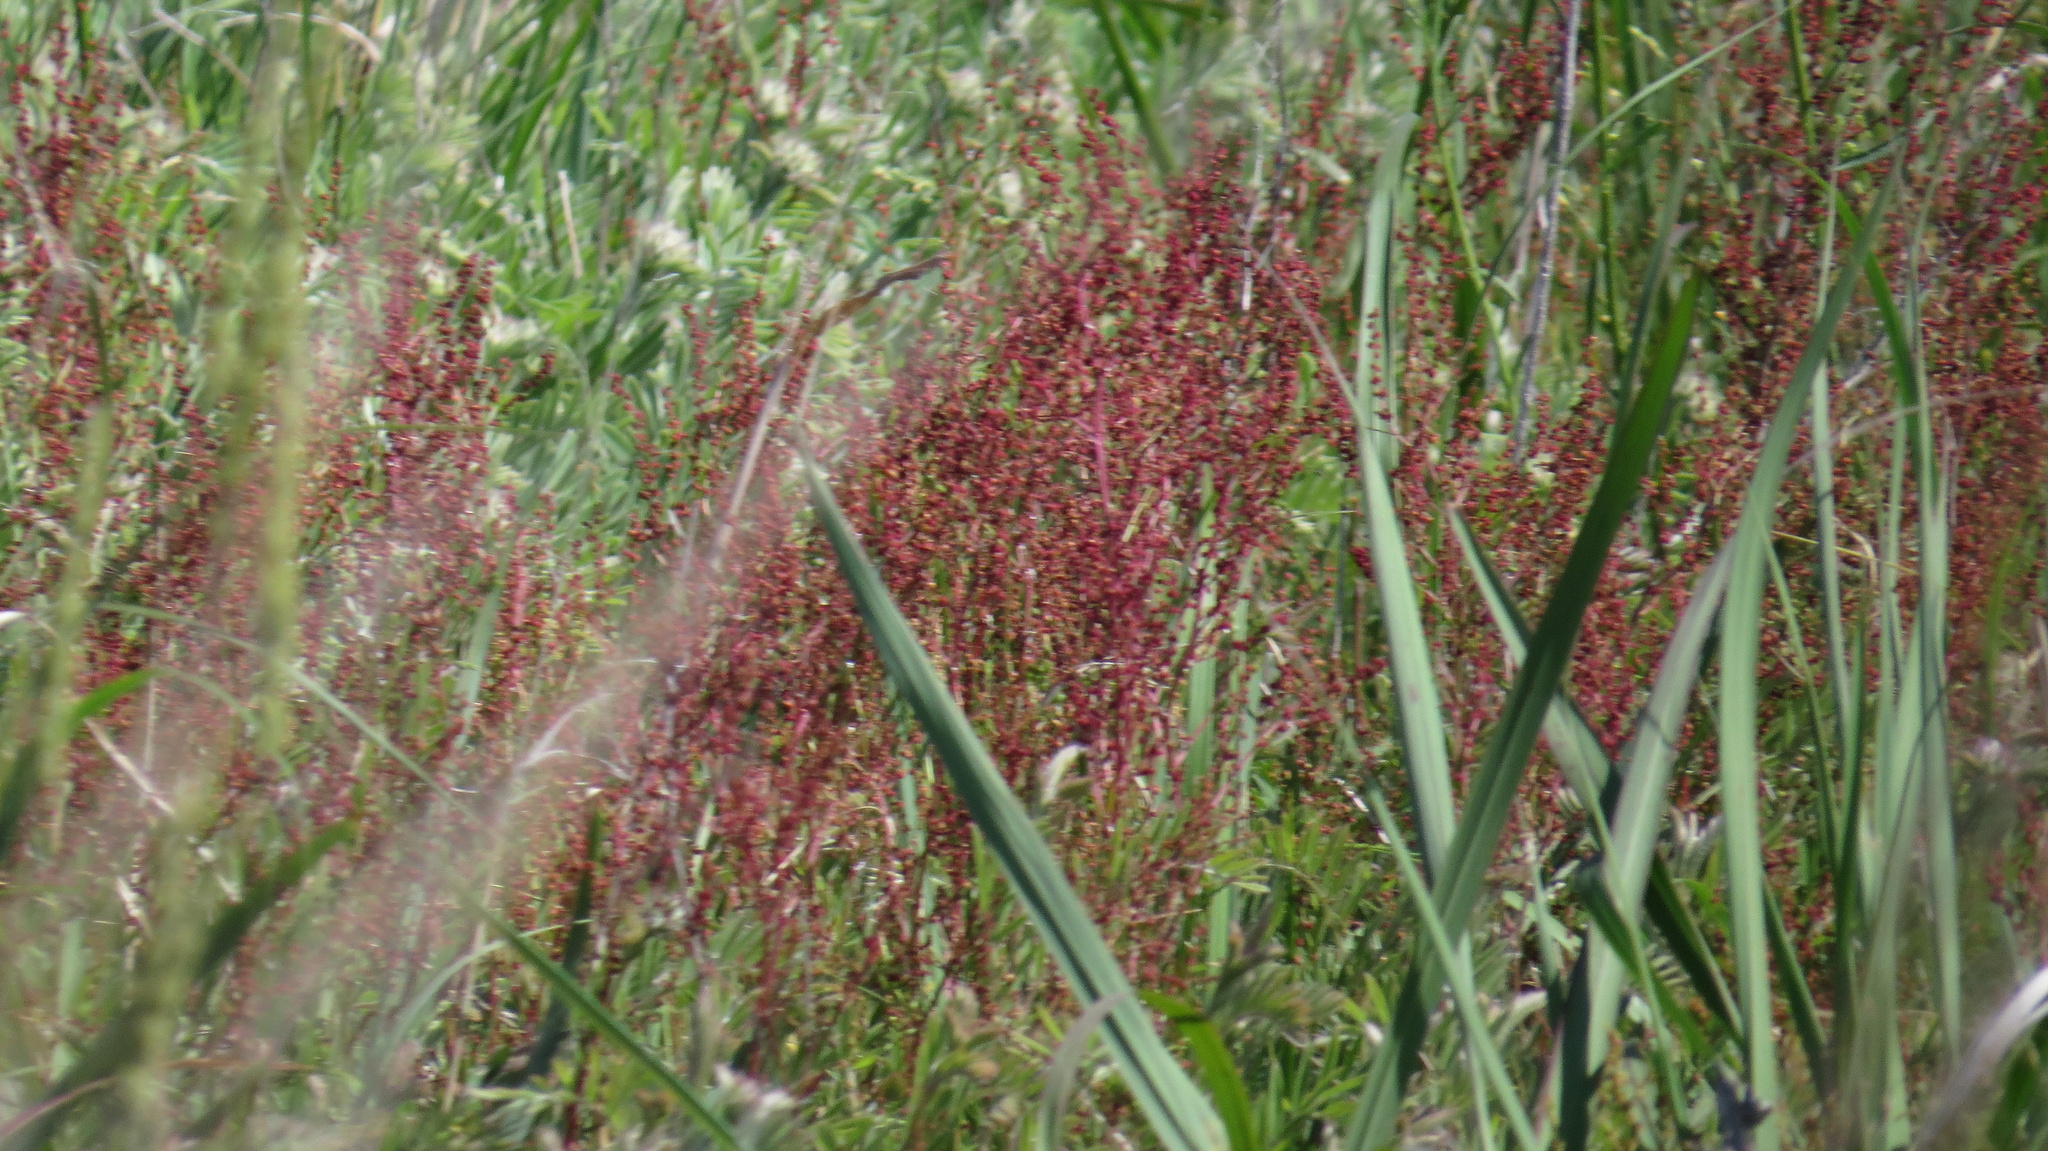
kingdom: Plantae
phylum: Tracheophyta
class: Magnoliopsida
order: Caryophyllales
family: Polygonaceae
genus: Rumex
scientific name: Rumex acetosella
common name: Common sheep sorrel
